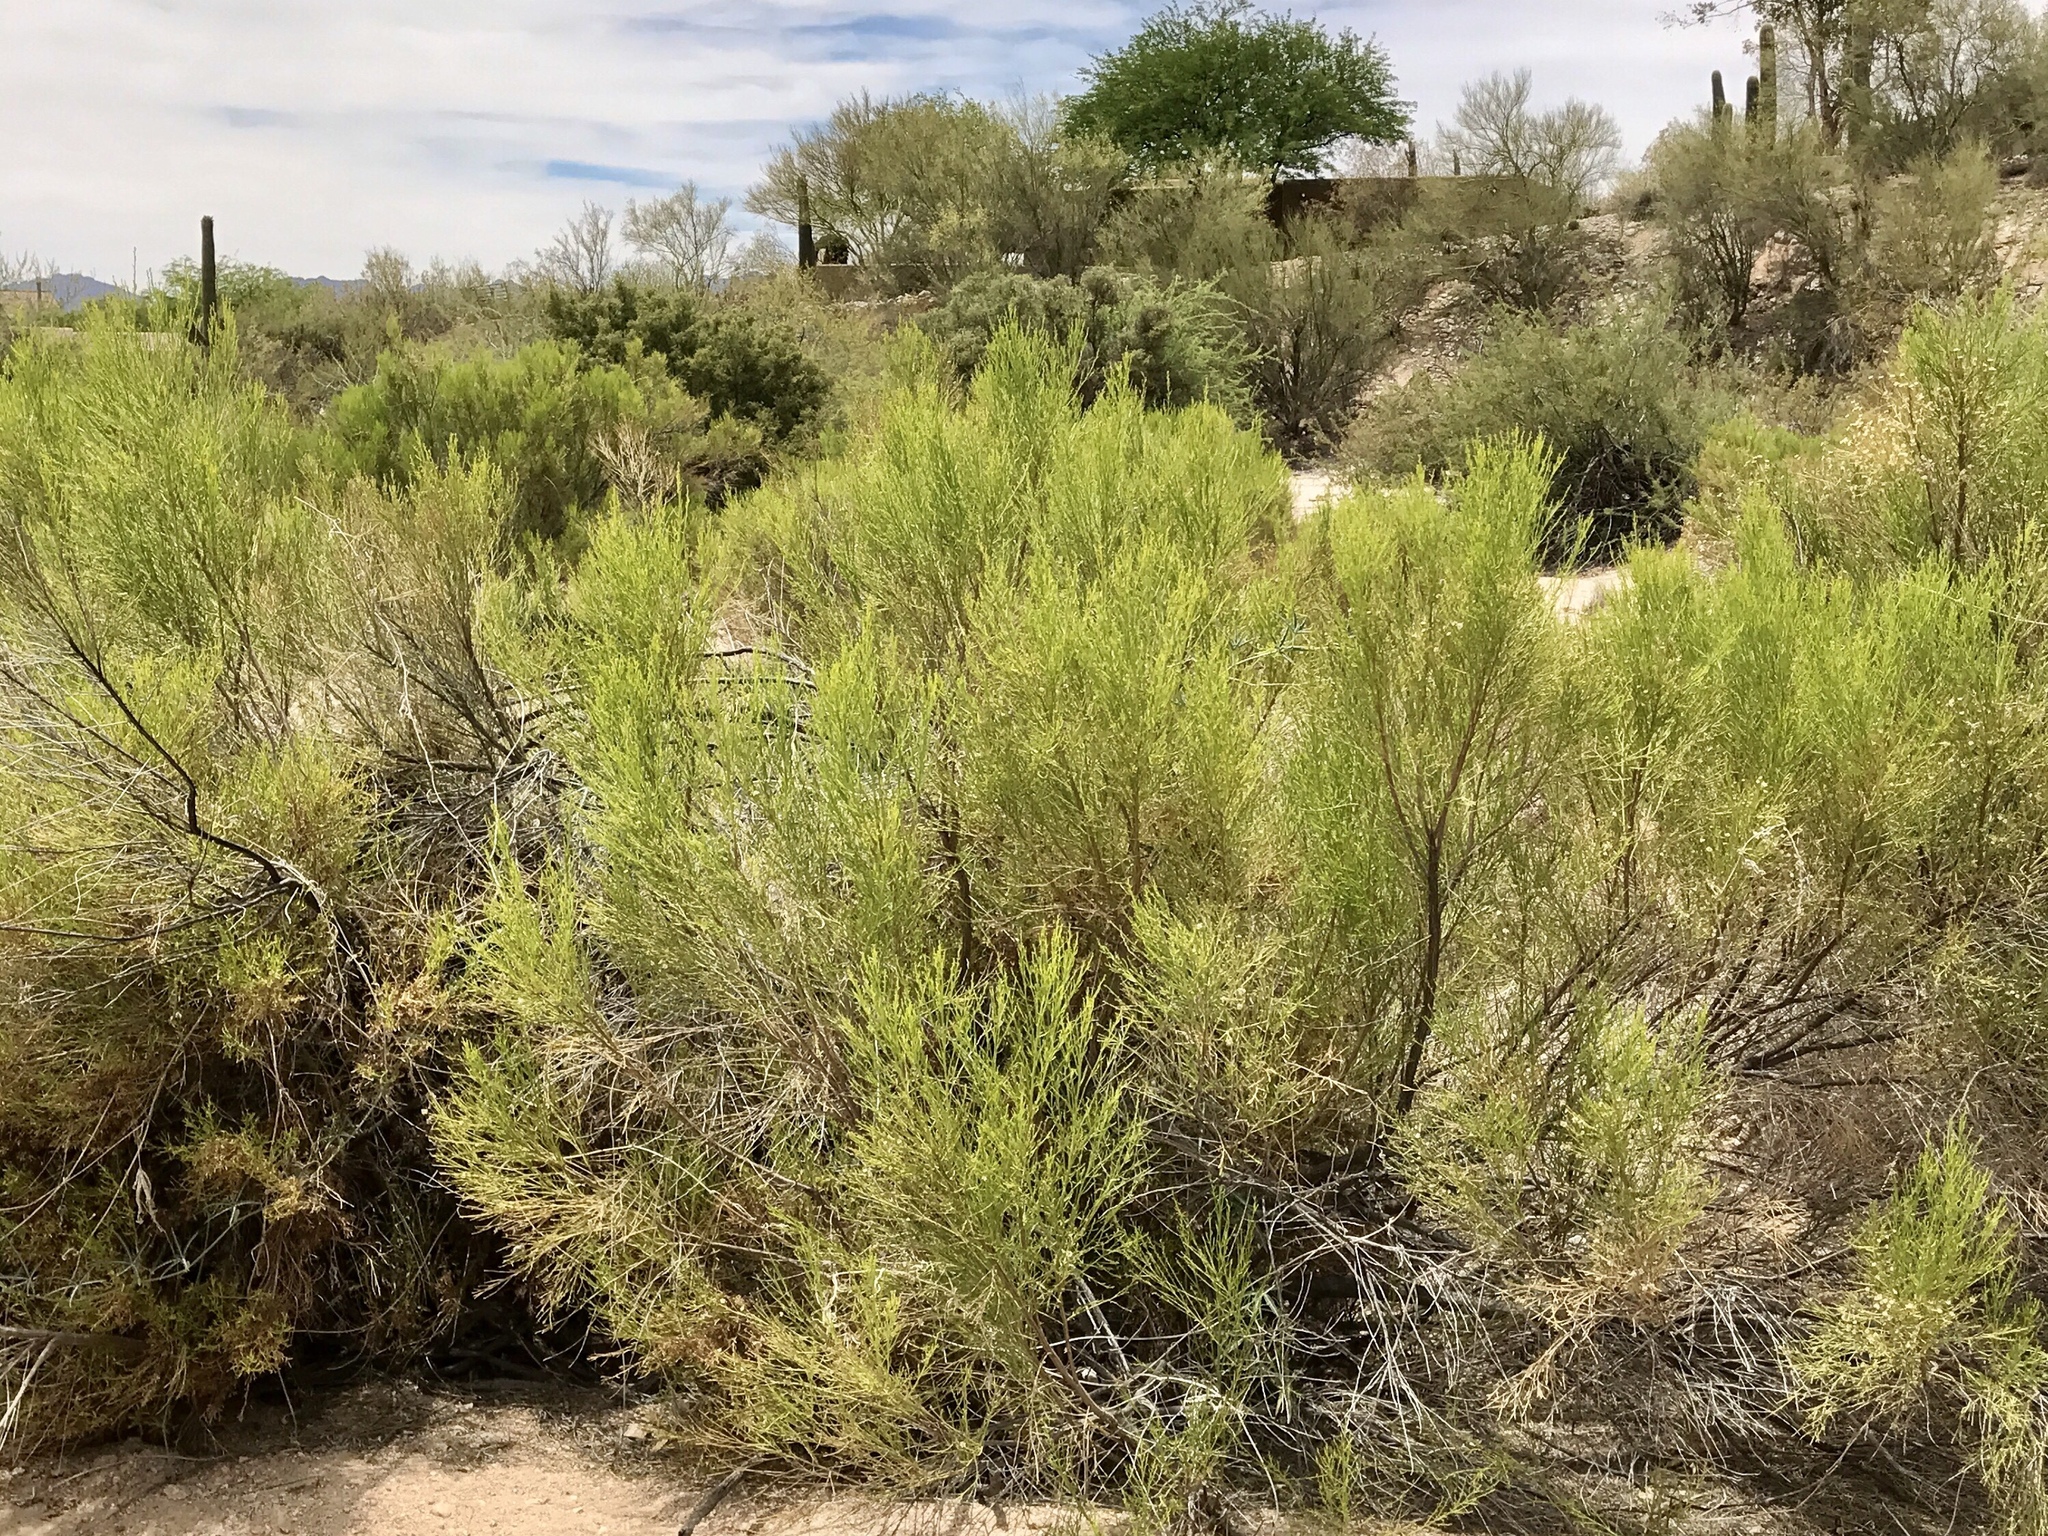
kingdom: Plantae
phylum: Tracheophyta
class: Magnoliopsida
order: Asterales
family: Asteraceae
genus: Baccharis
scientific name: Baccharis sarothroides
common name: Desert-broom
